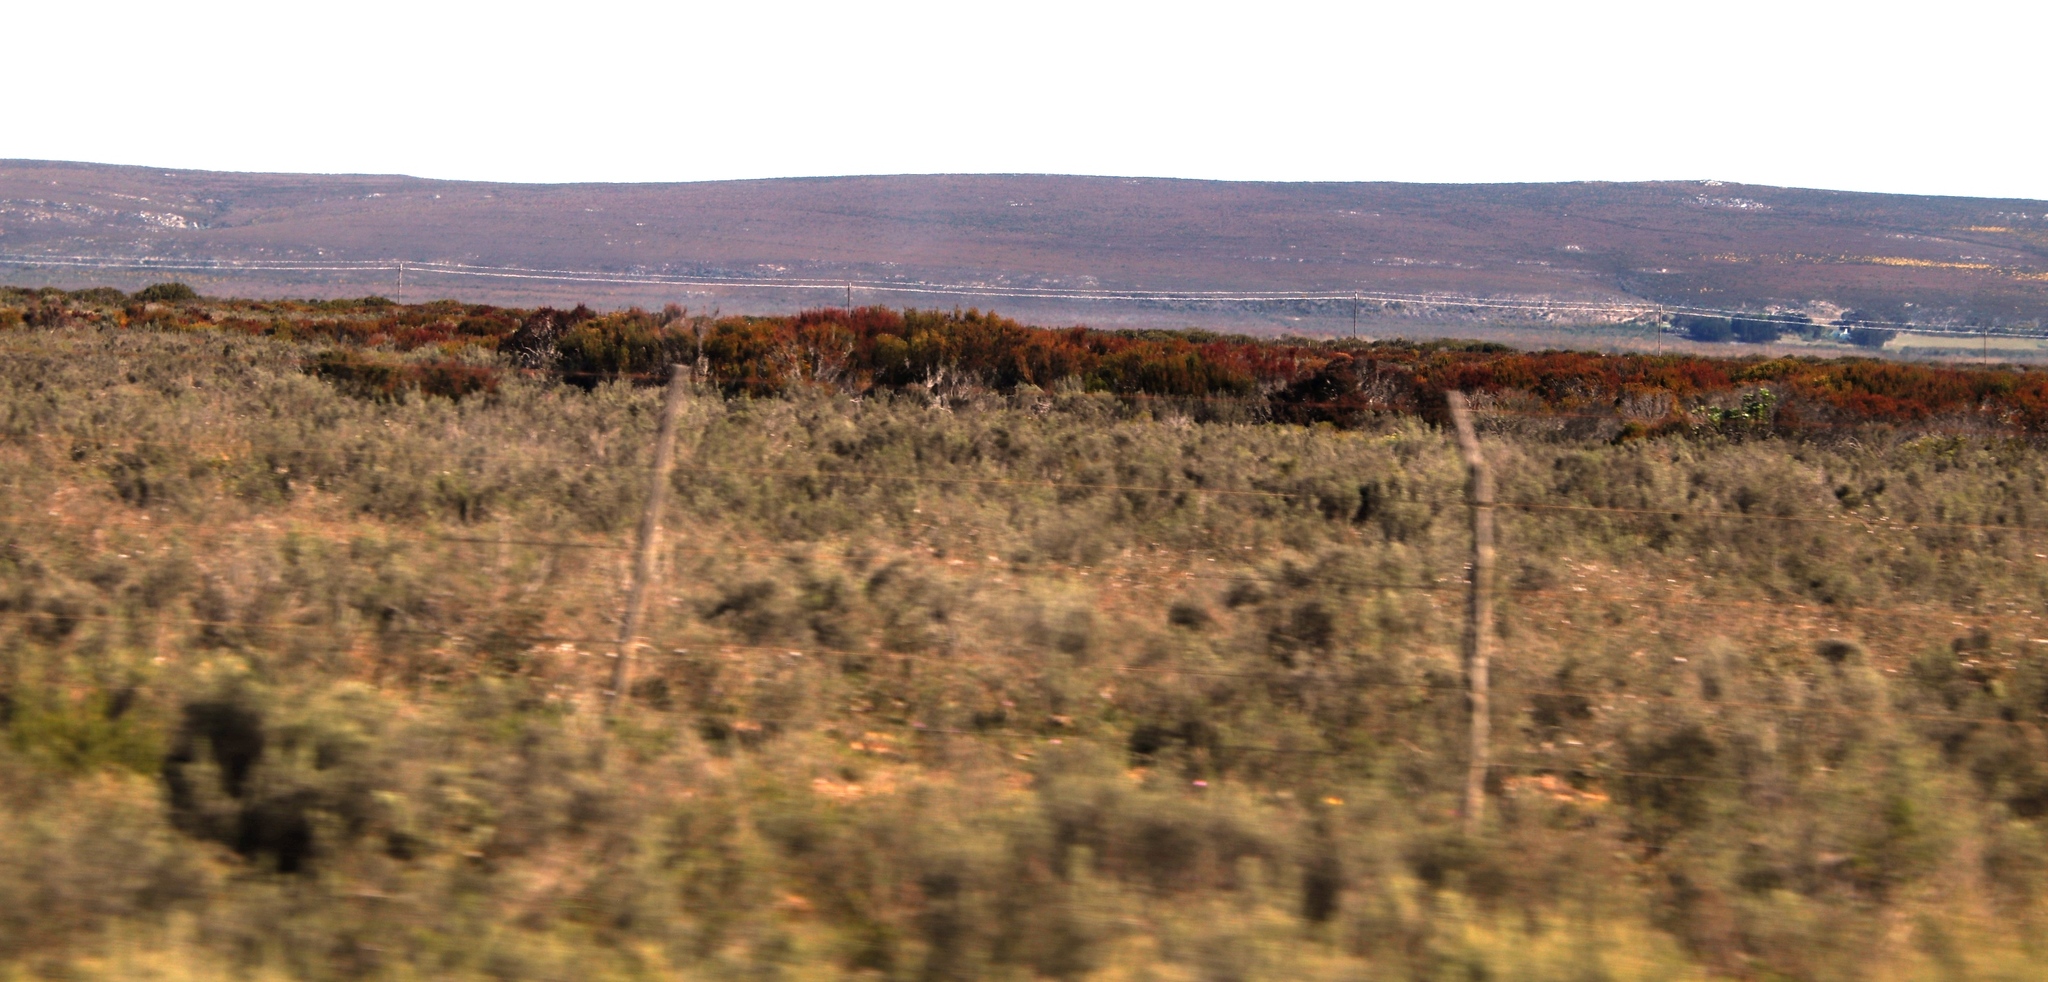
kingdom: Plantae
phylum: Tracheophyta
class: Magnoliopsida
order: Proteales
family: Proteaceae
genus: Leucadendron
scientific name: Leucadendron linifolium
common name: Line-leaf conebush
